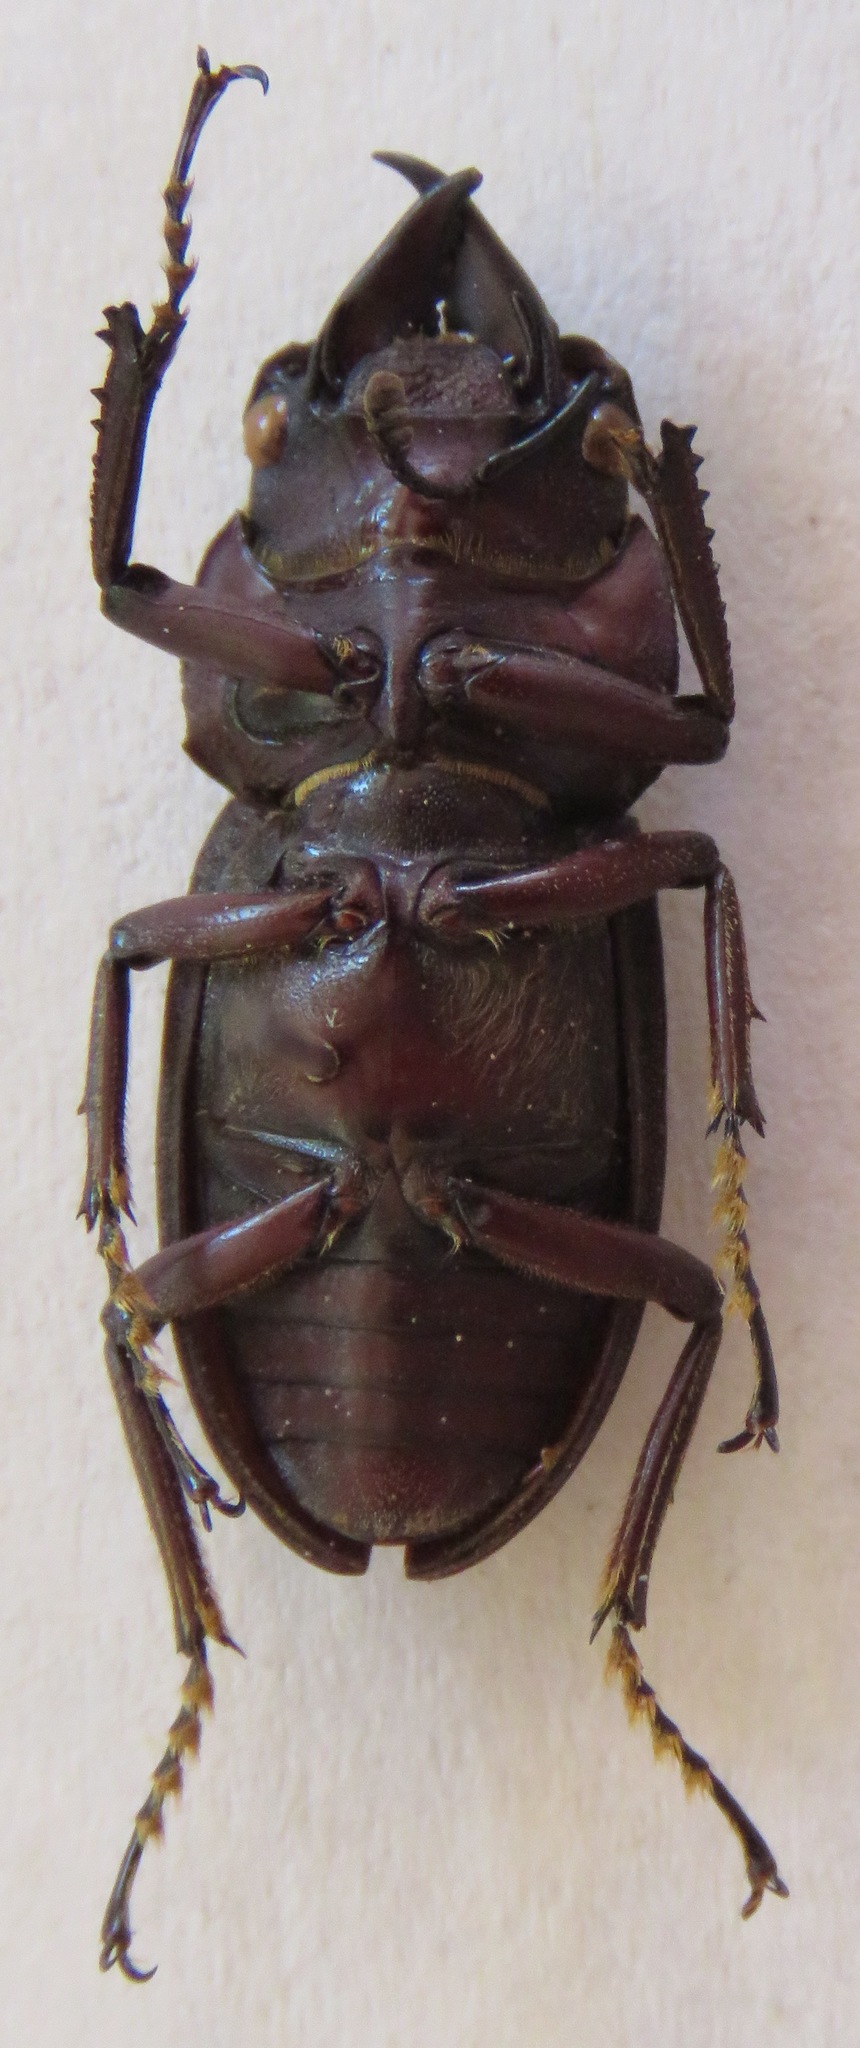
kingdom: Animalia
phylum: Arthropoda
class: Insecta
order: Coleoptera
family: Lucanidae
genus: Epidorcus
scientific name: Epidorcus denticulatus
